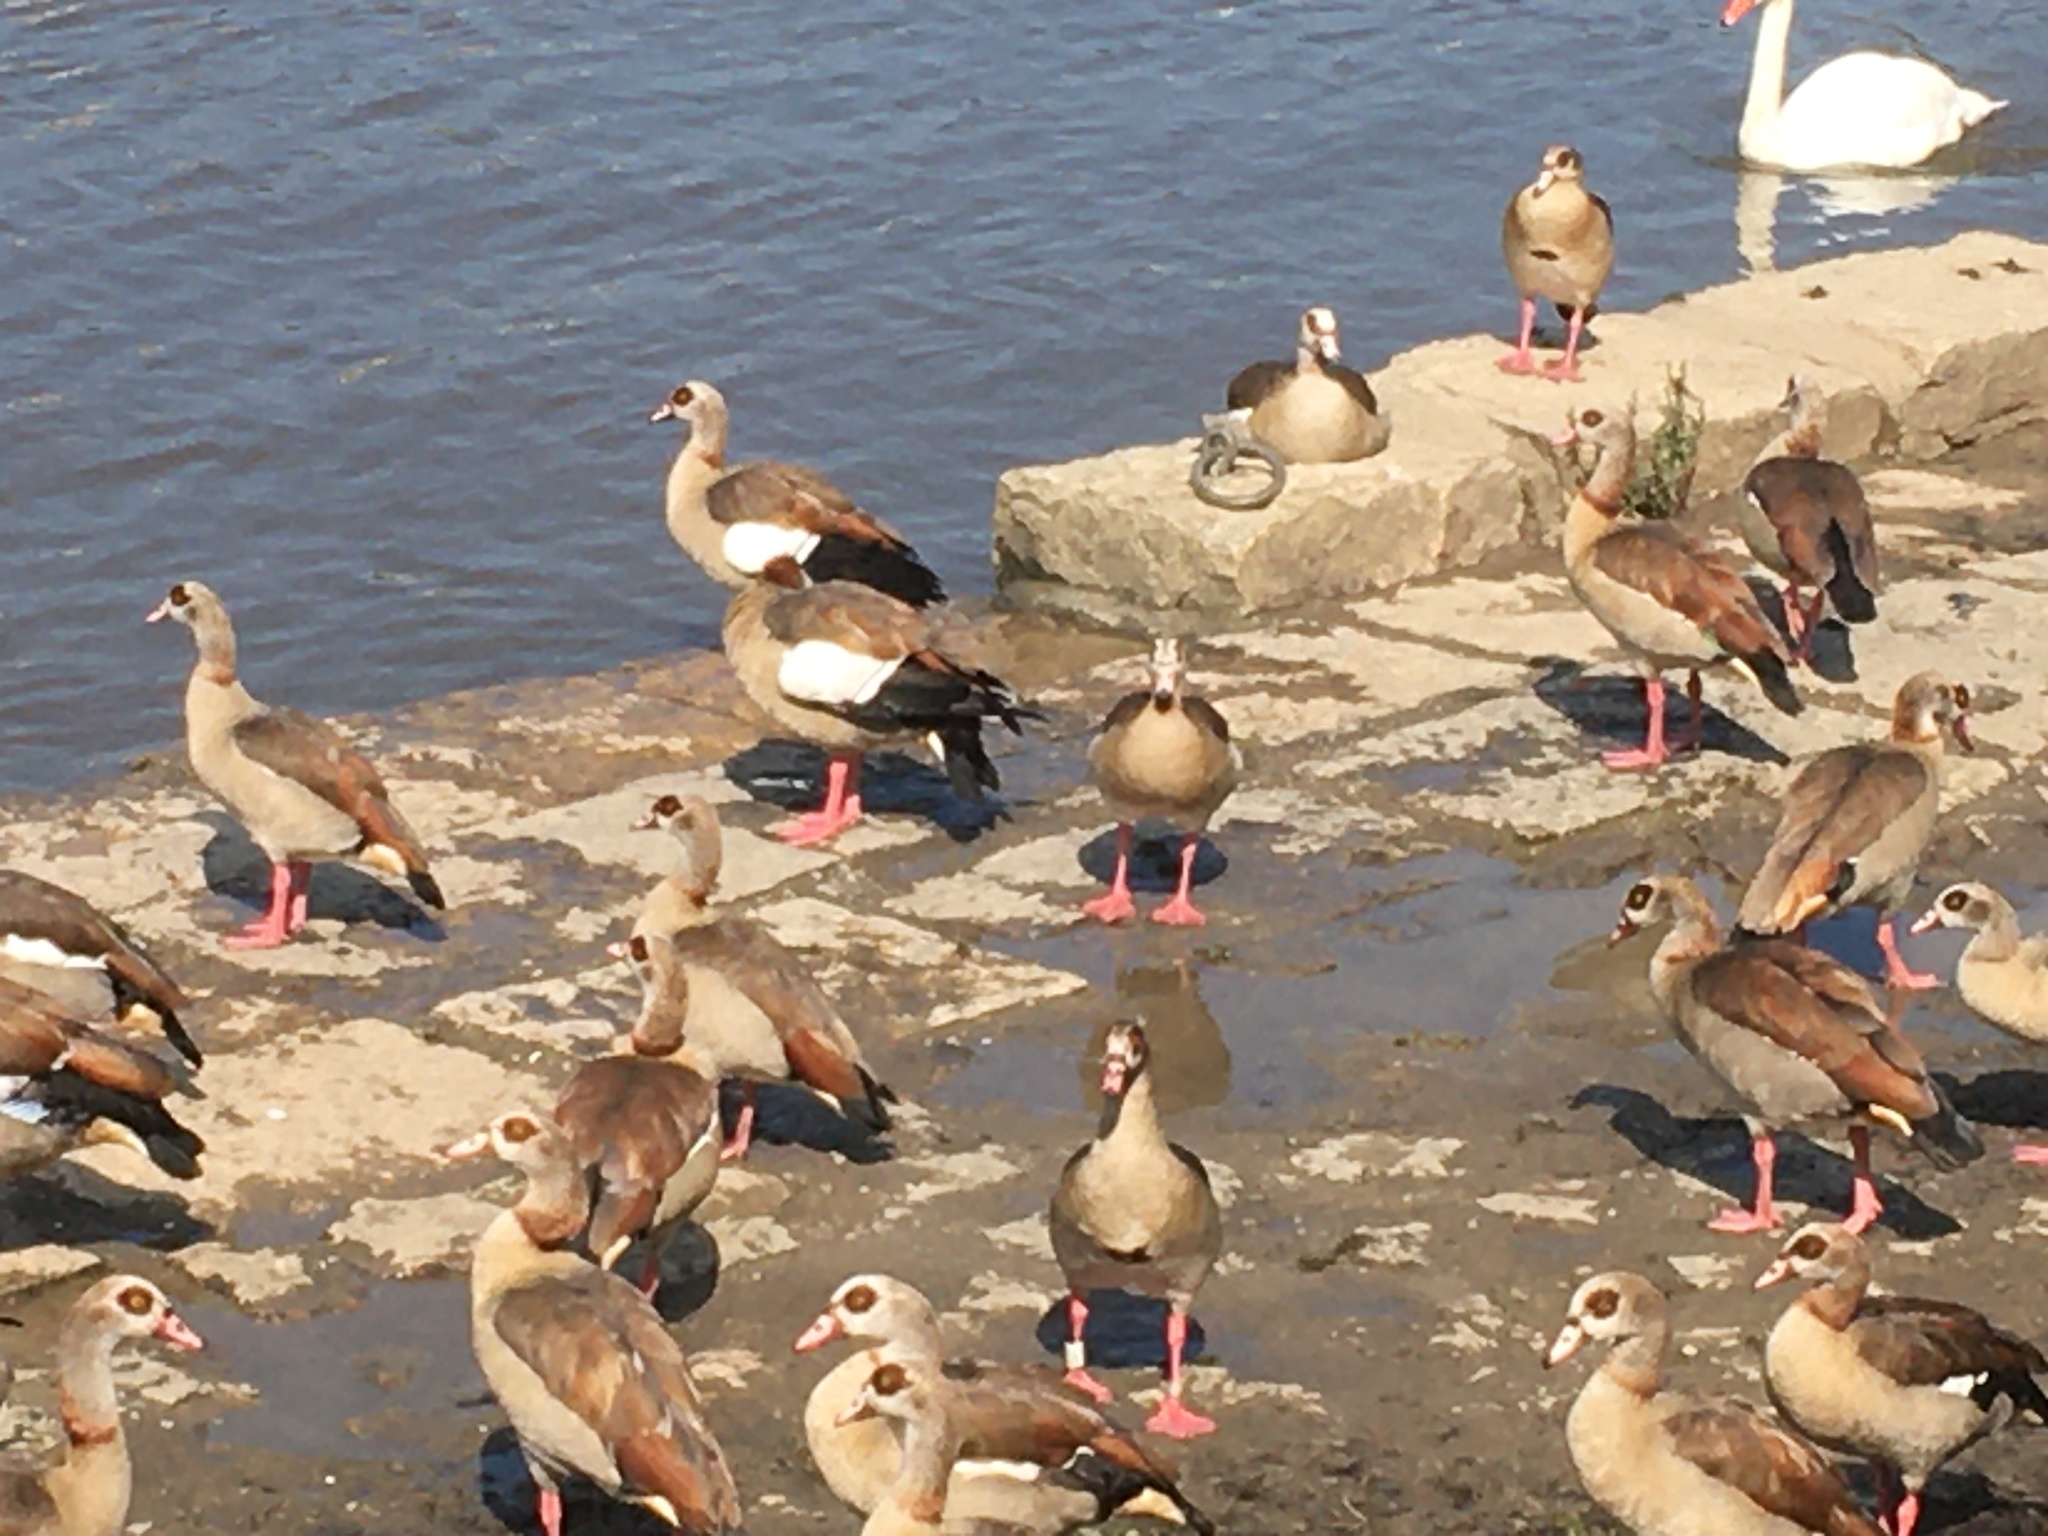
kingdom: Animalia
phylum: Chordata
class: Aves
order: Anseriformes
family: Anatidae
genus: Alopochen
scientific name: Alopochen aegyptiaca
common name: Egyptian goose
